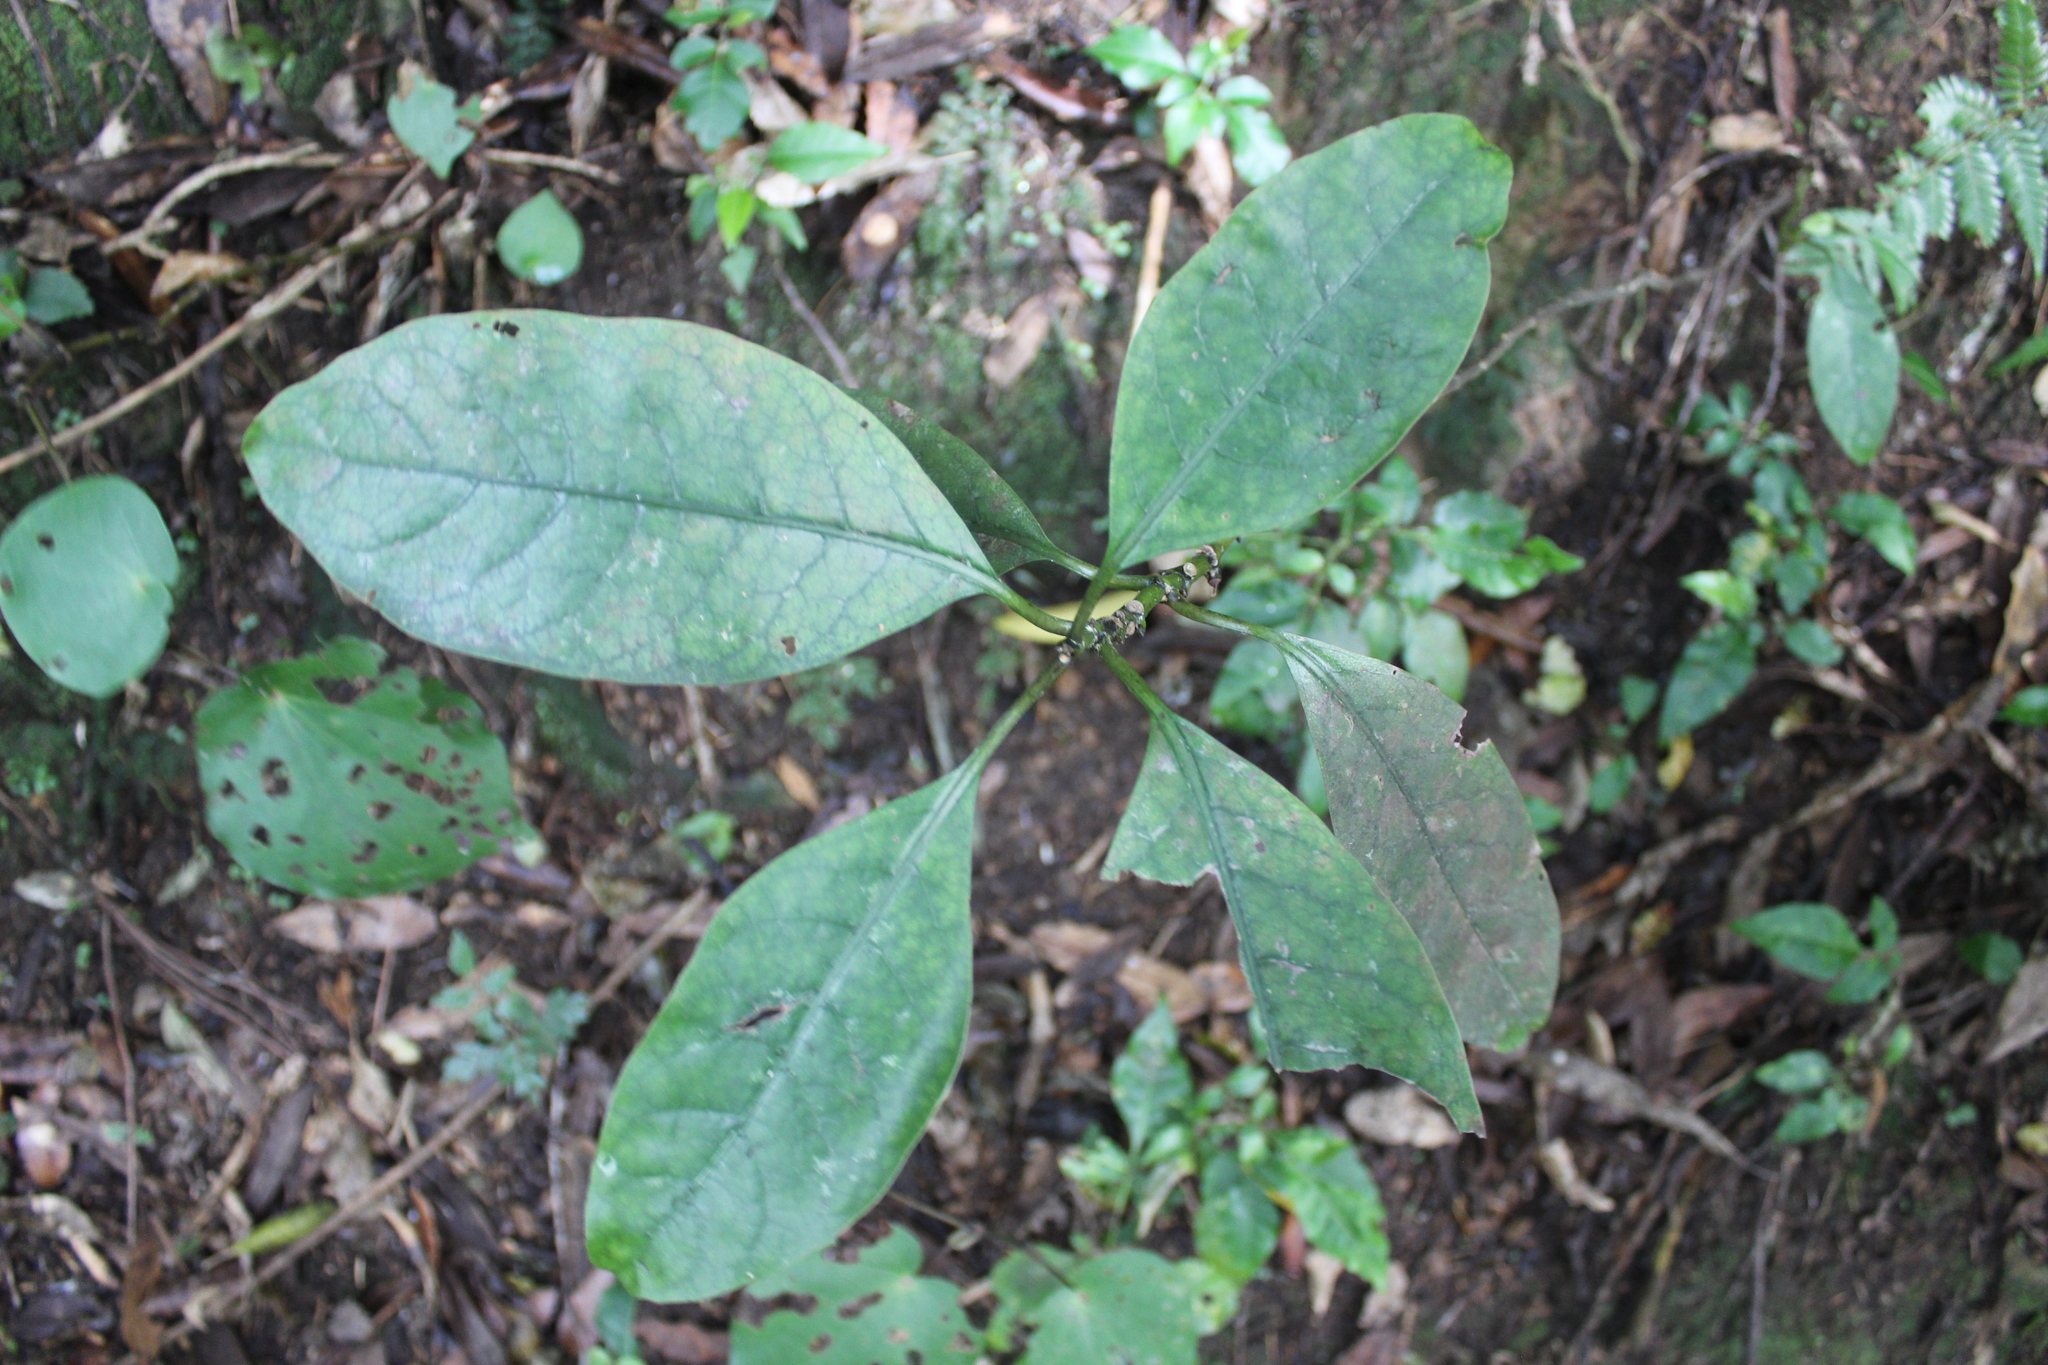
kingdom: Plantae
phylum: Tracheophyta
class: Magnoliopsida
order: Gentianales
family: Rubiaceae
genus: Coprosma
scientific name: Coprosma autumnalis
